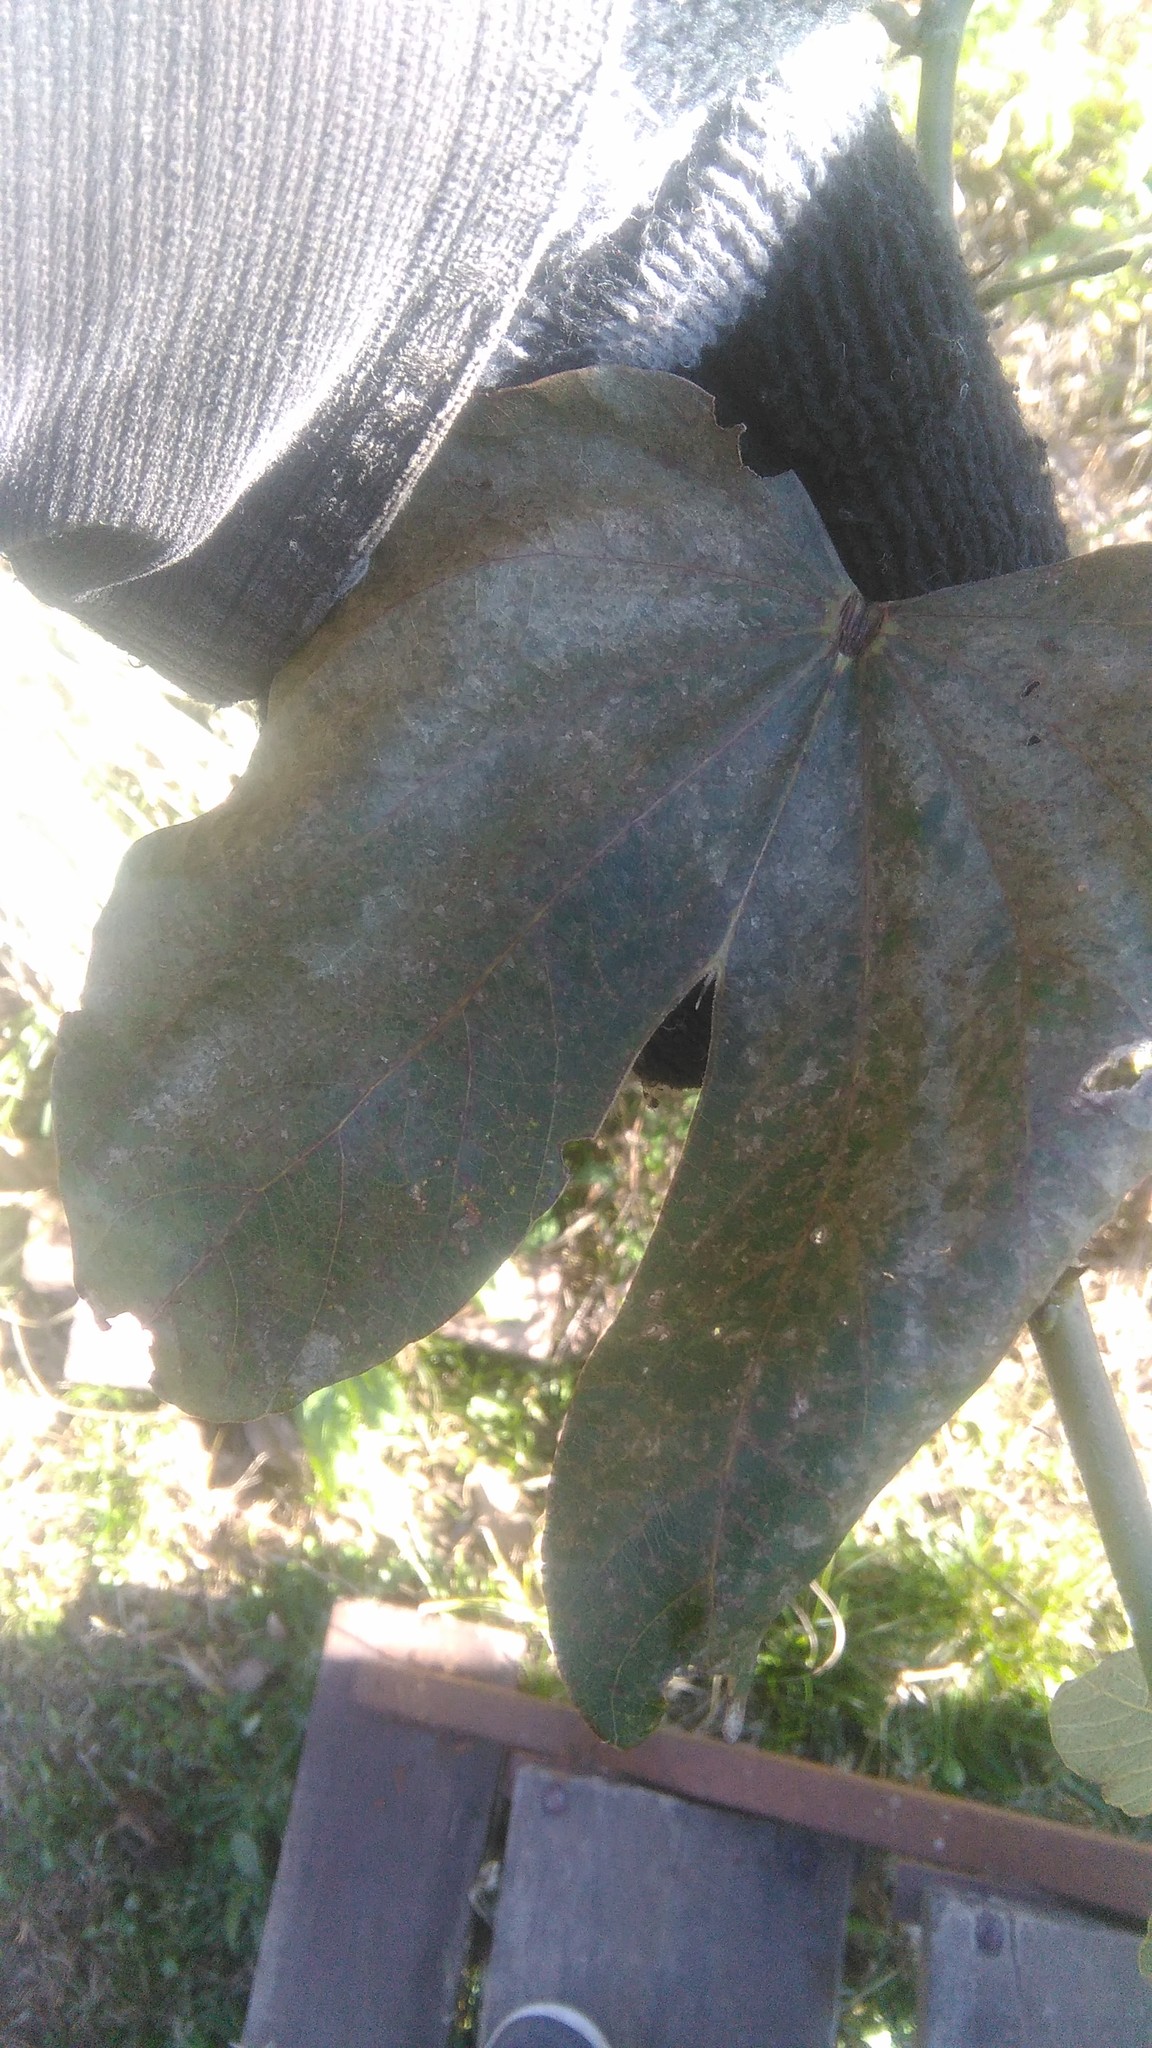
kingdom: Plantae
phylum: Tracheophyta
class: Magnoliopsida
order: Fabales
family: Fabaceae
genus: Bauhinia
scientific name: Bauhinia forficata
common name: Orchid tree
